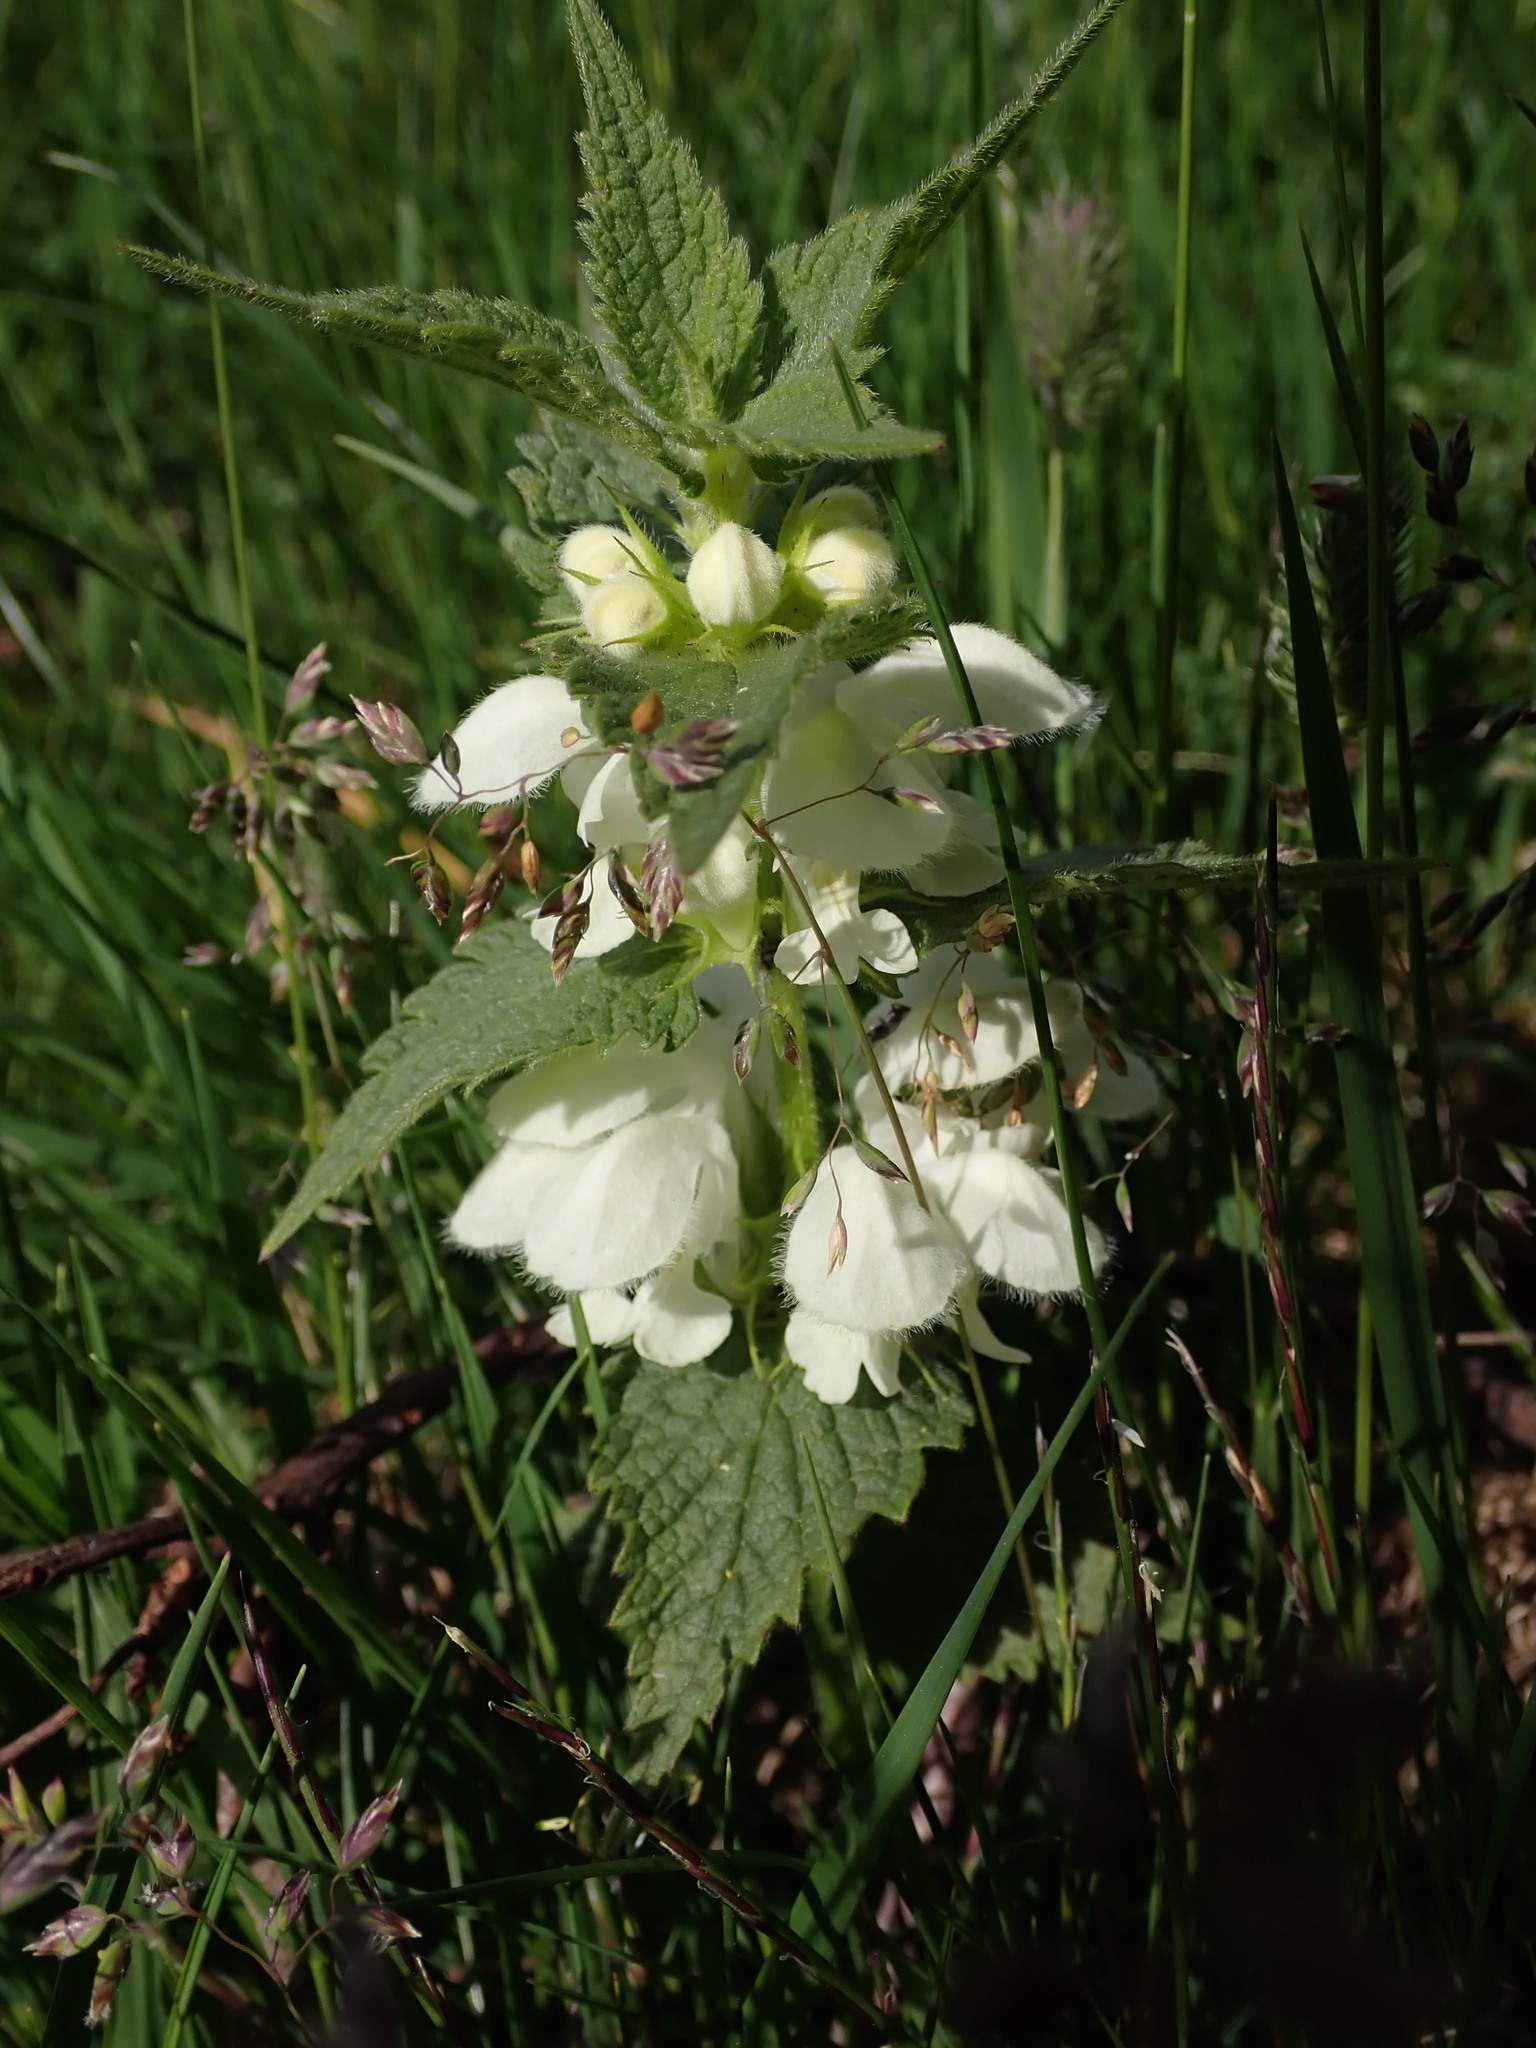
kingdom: Plantae
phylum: Tracheophyta
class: Magnoliopsida
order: Lamiales
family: Lamiaceae
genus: Lamium
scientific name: Lamium album
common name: White dead-nettle
